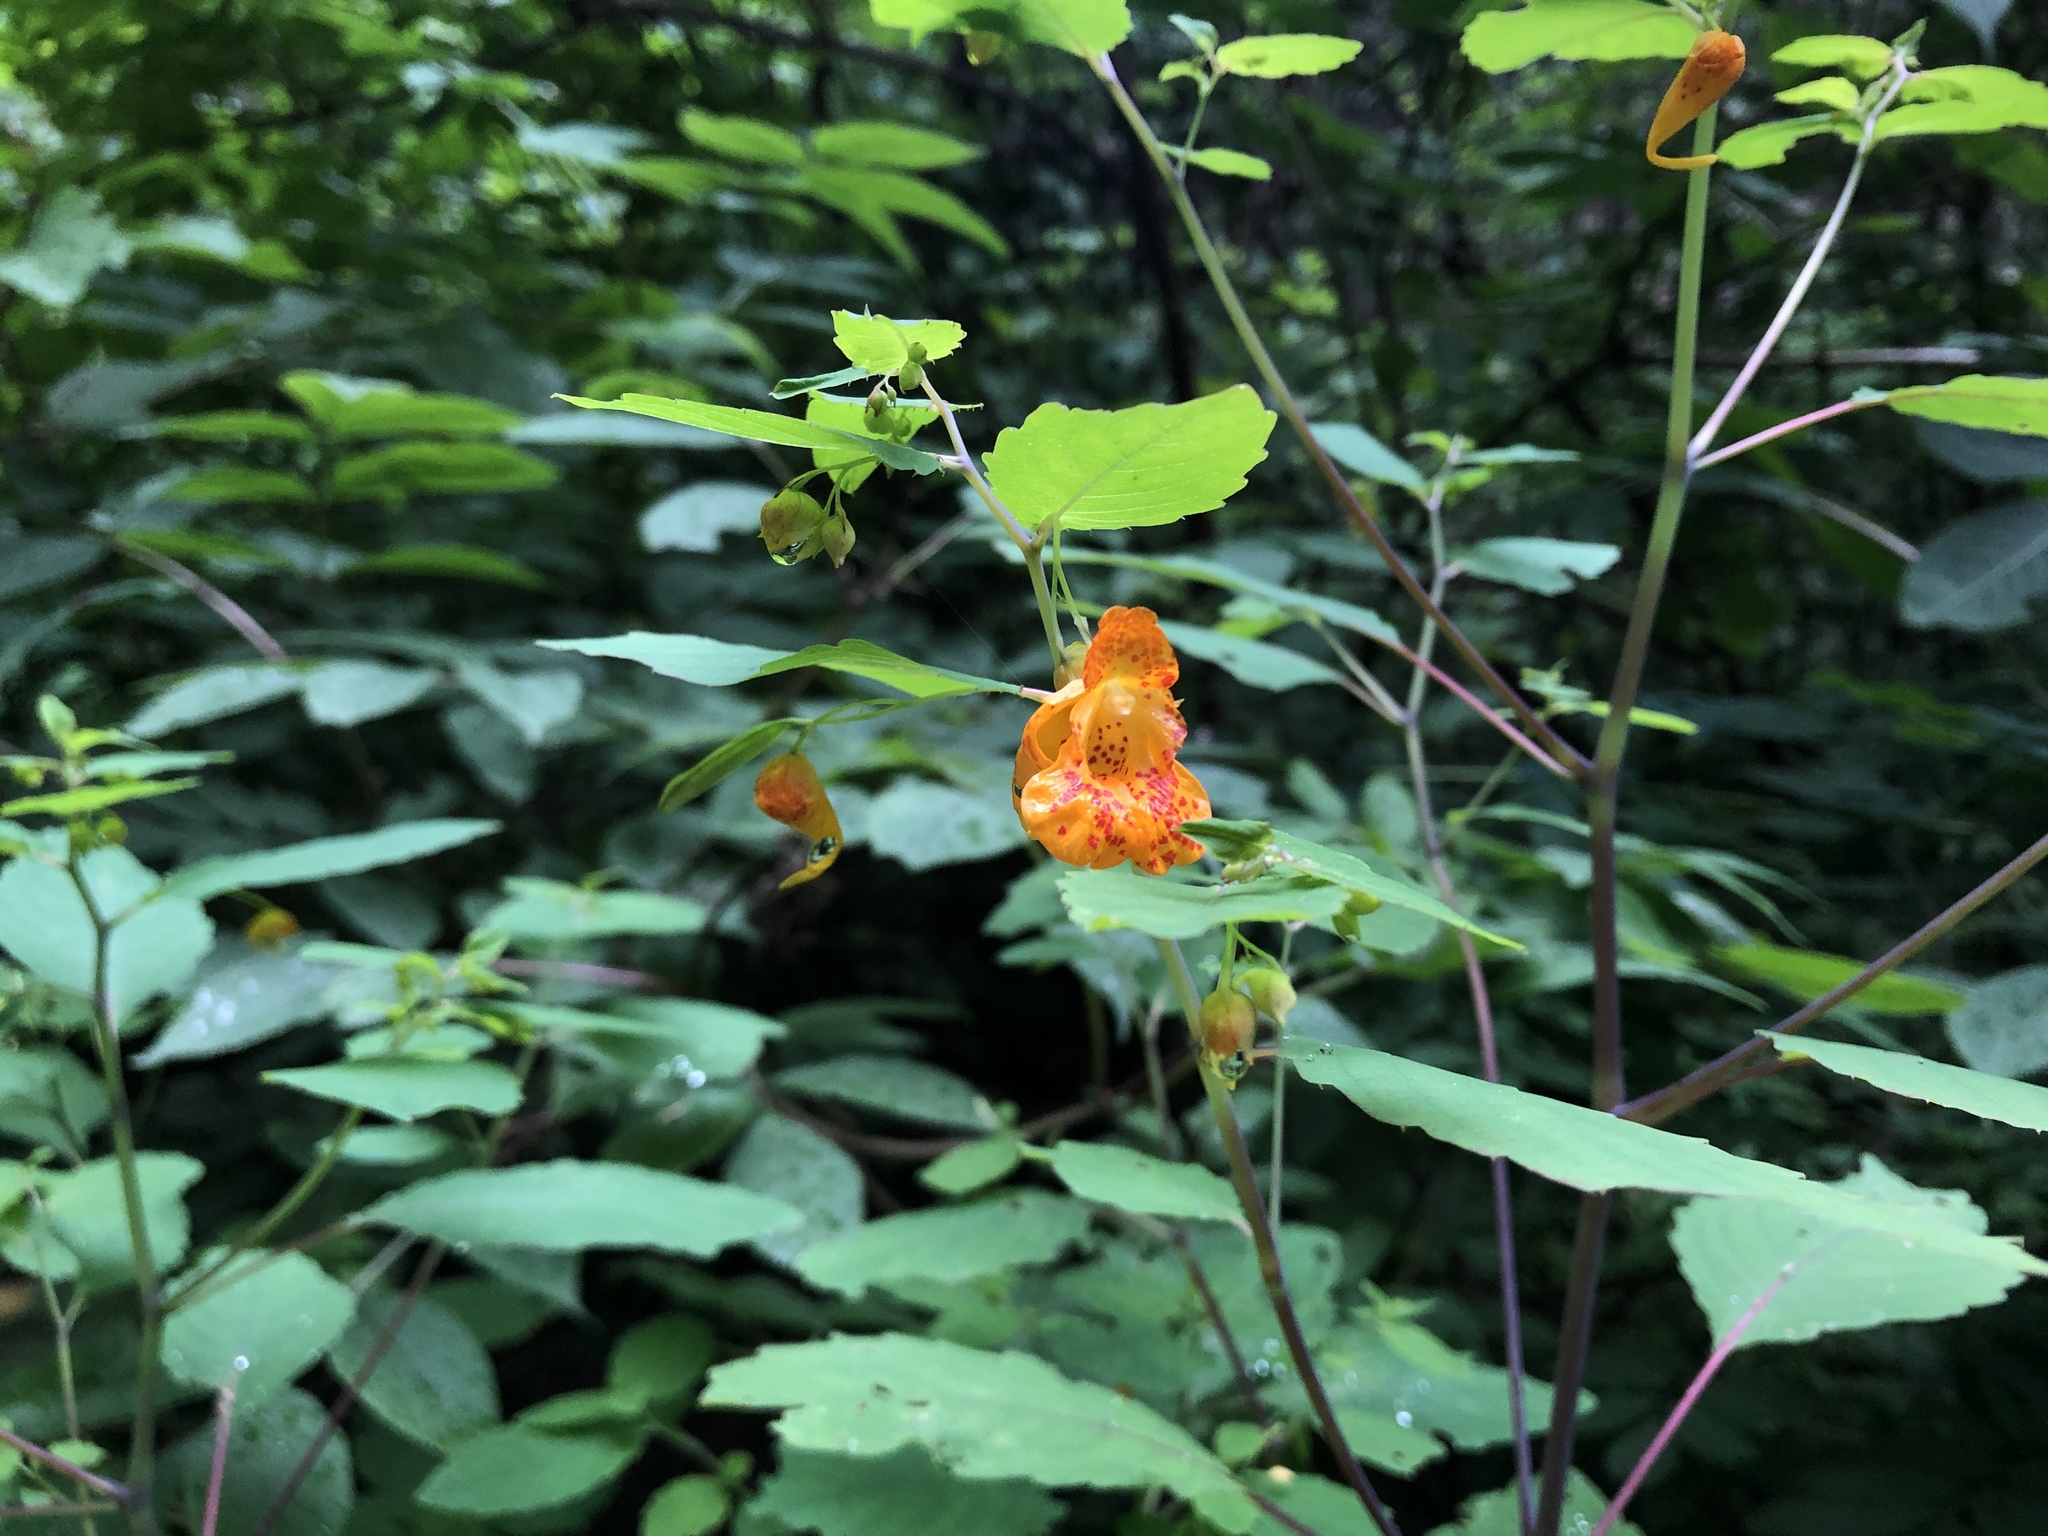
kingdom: Plantae
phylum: Tracheophyta
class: Magnoliopsida
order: Ericales
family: Balsaminaceae
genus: Impatiens
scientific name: Impatiens capensis
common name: Orange balsam
